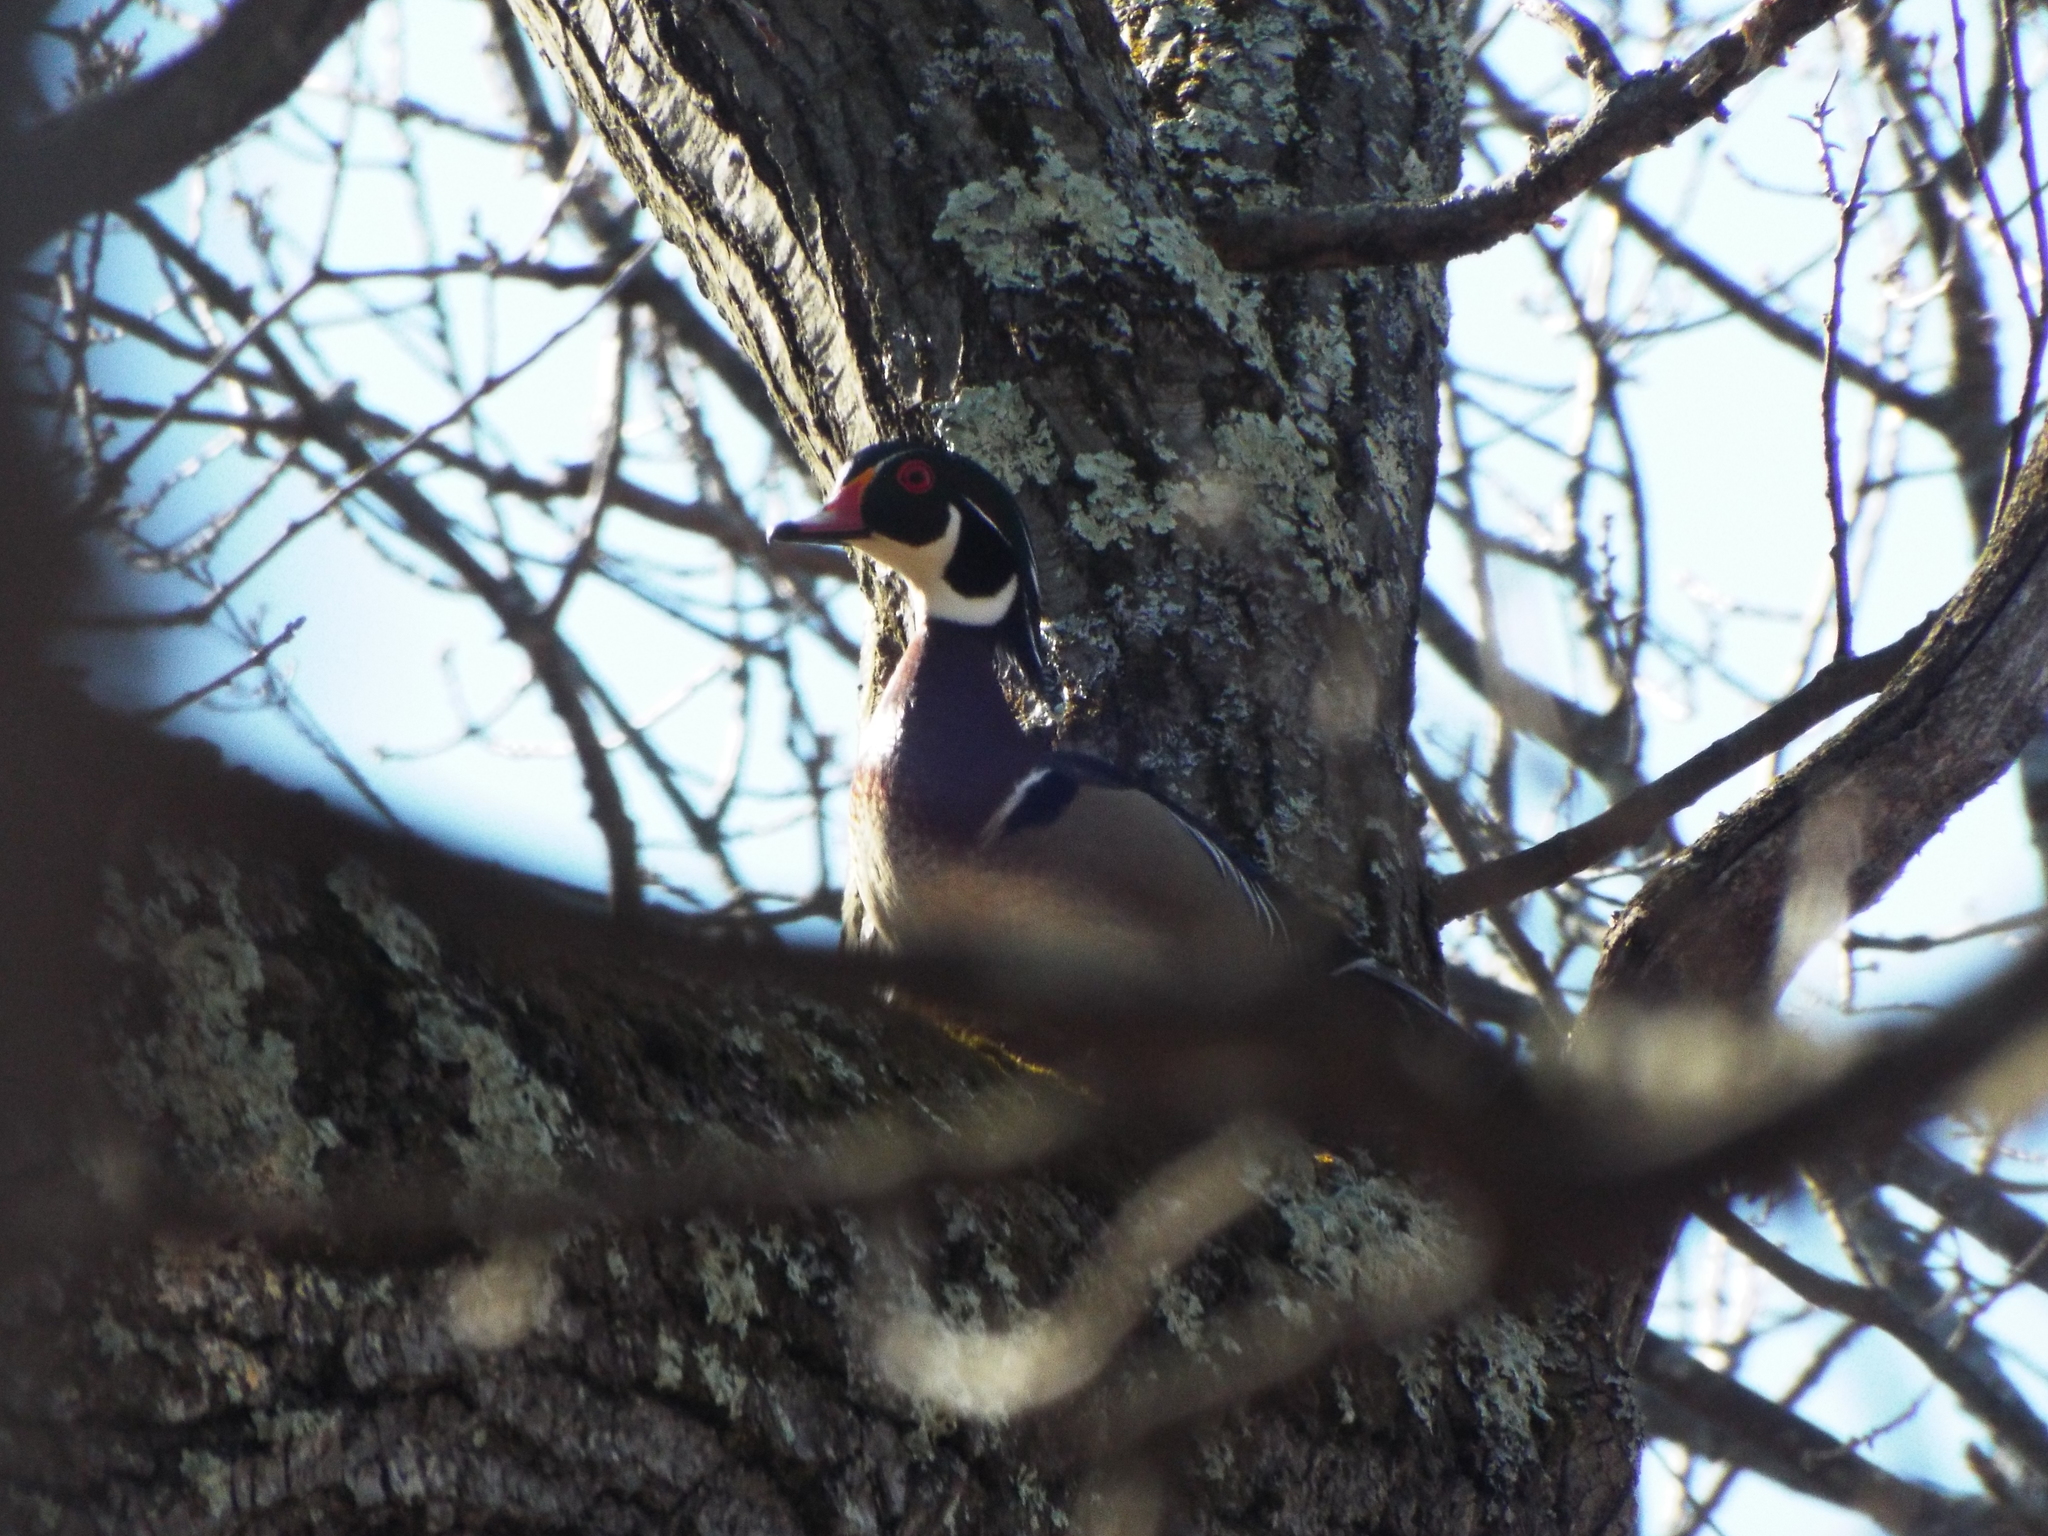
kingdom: Animalia
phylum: Chordata
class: Aves
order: Anseriformes
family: Anatidae
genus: Aix
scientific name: Aix sponsa
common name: Wood duck
